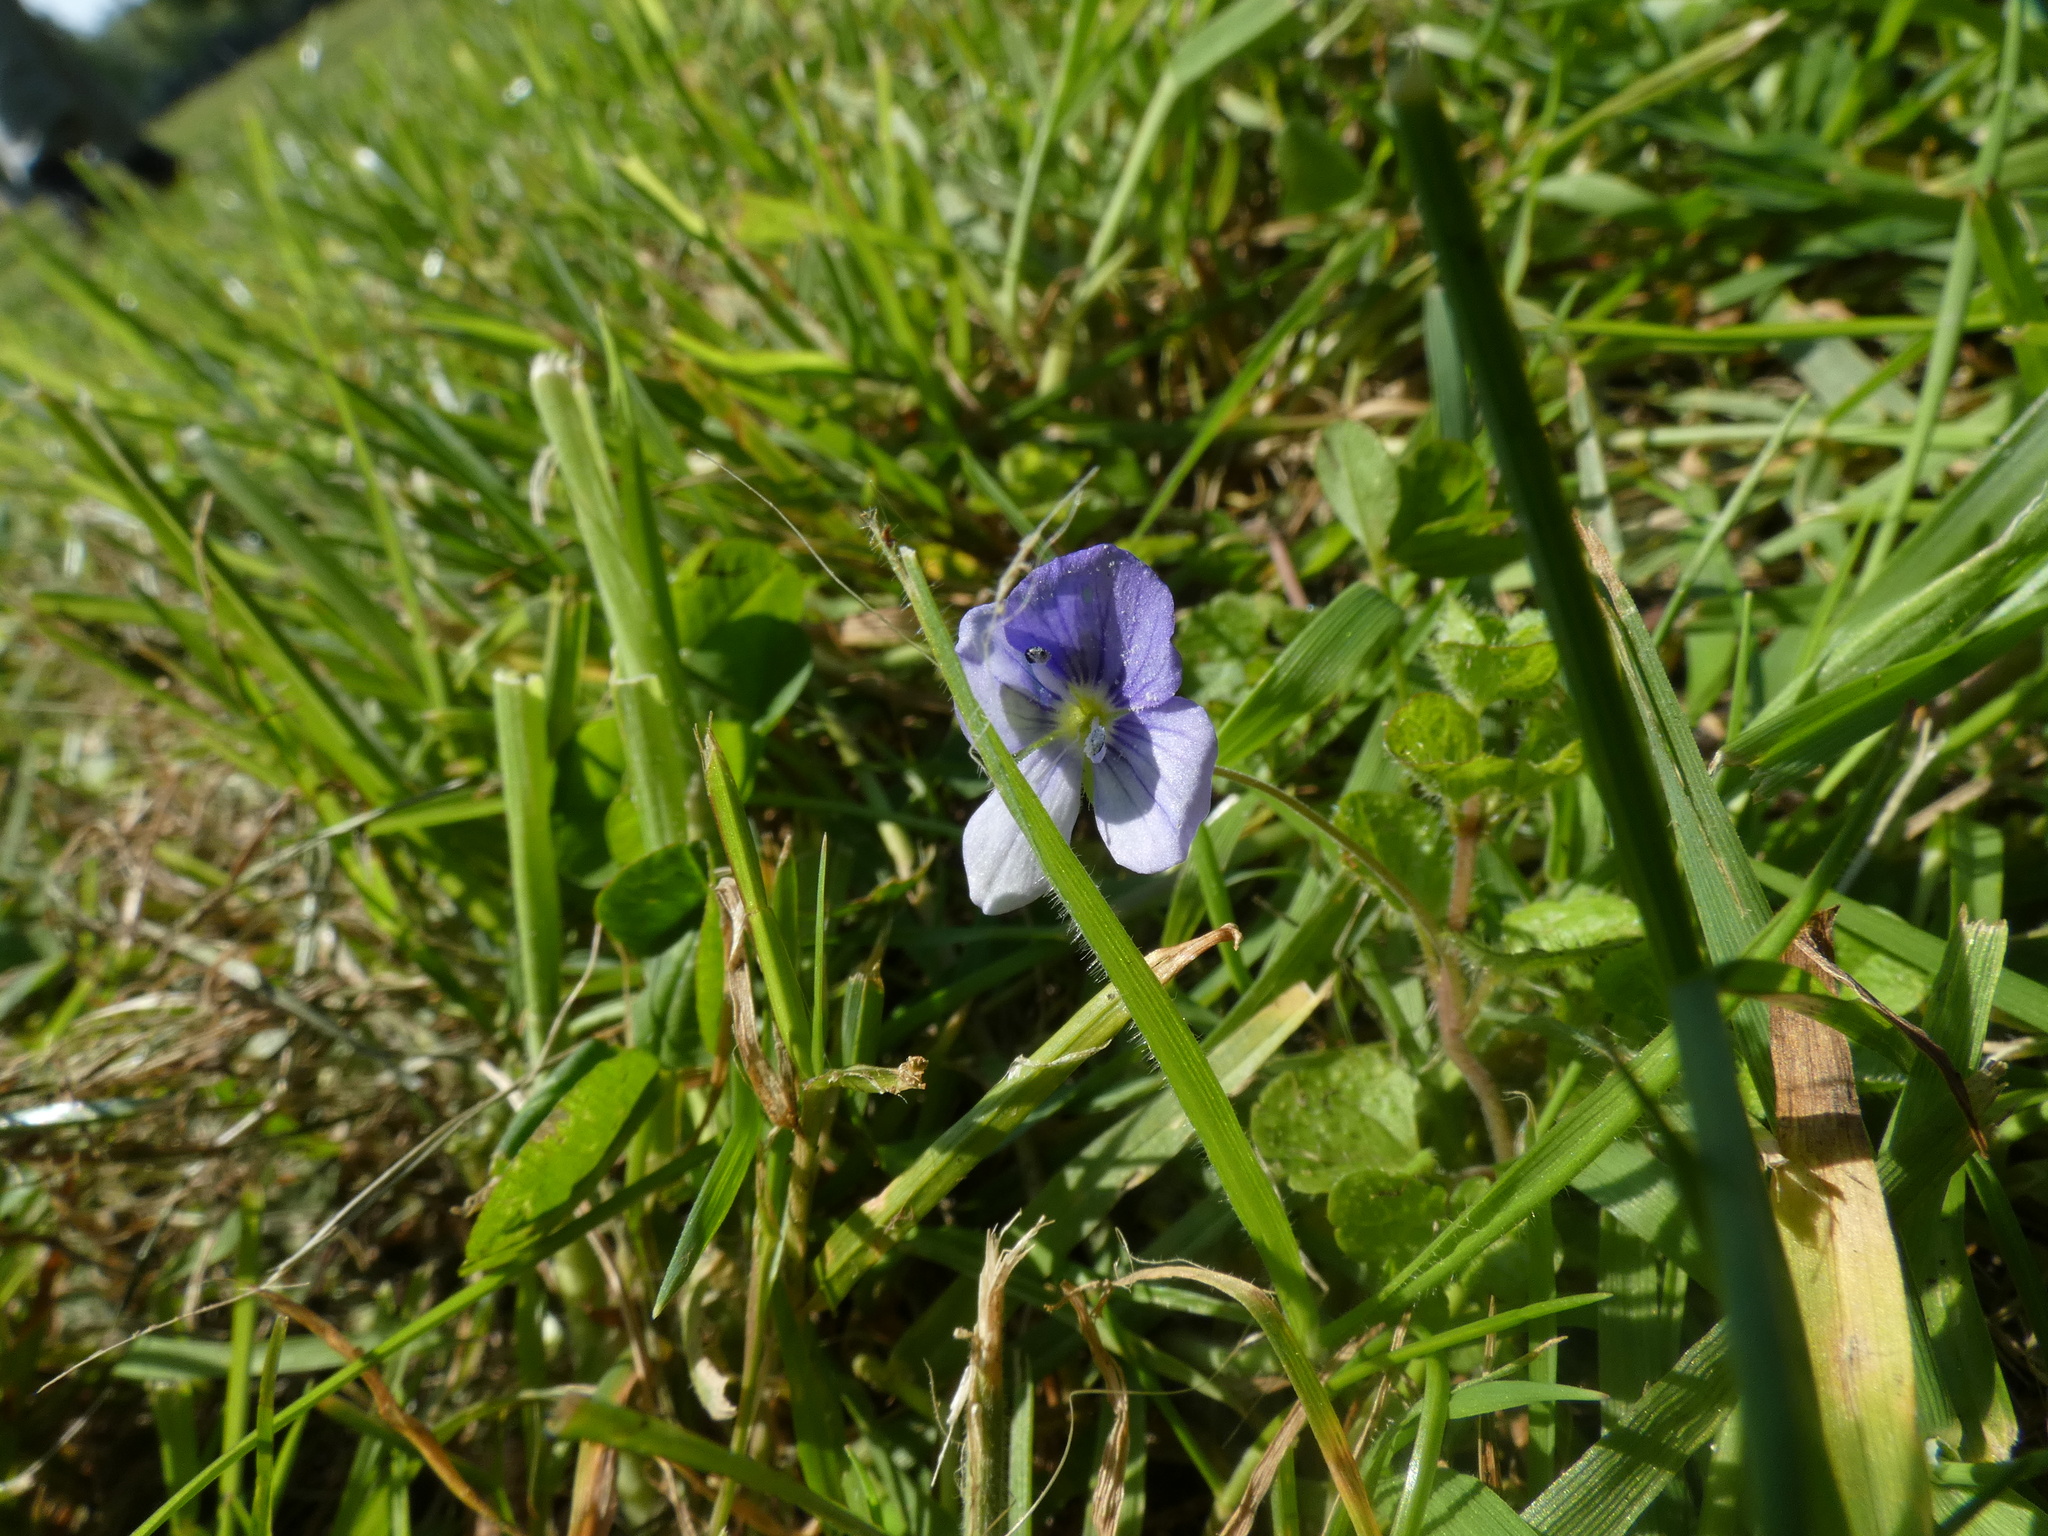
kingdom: Plantae
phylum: Tracheophyta
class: Magnoliopsida
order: Lamiales
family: Plantaginaceae
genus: Veronica
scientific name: Veronica filiformis
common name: Slender speedwell
